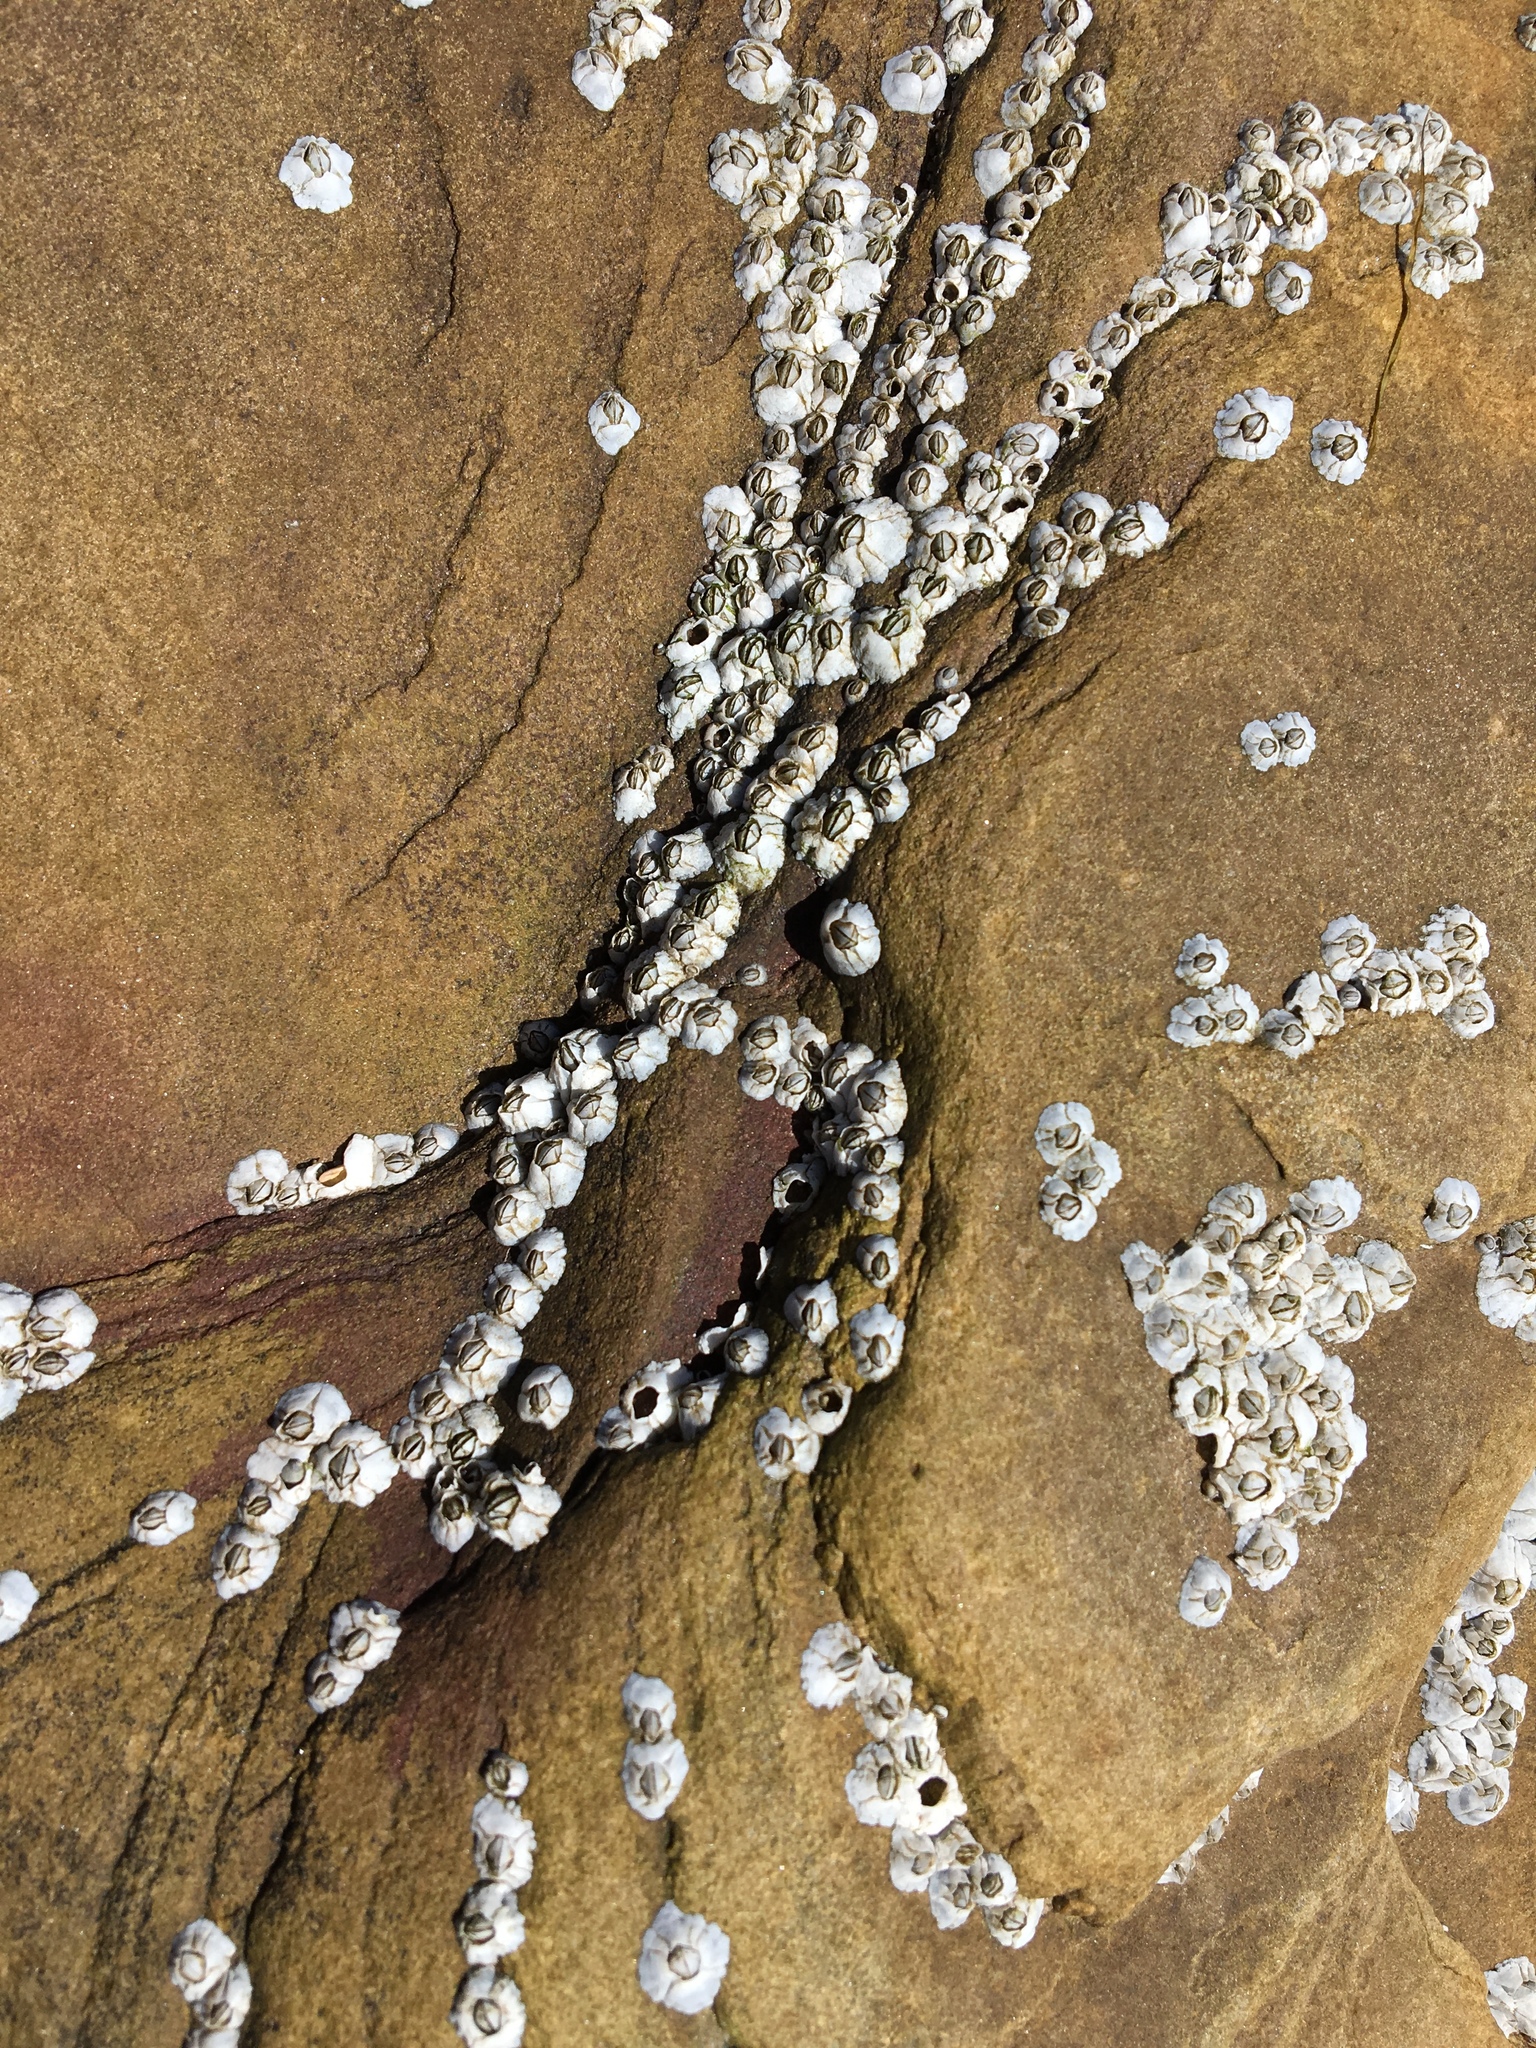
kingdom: Animalia
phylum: Arthropoda
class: Maxillopoda
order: Sessilia
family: Archaeobalanidae
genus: Semibalanus
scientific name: Semibalanus balanoides
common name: Acorn barnacle
